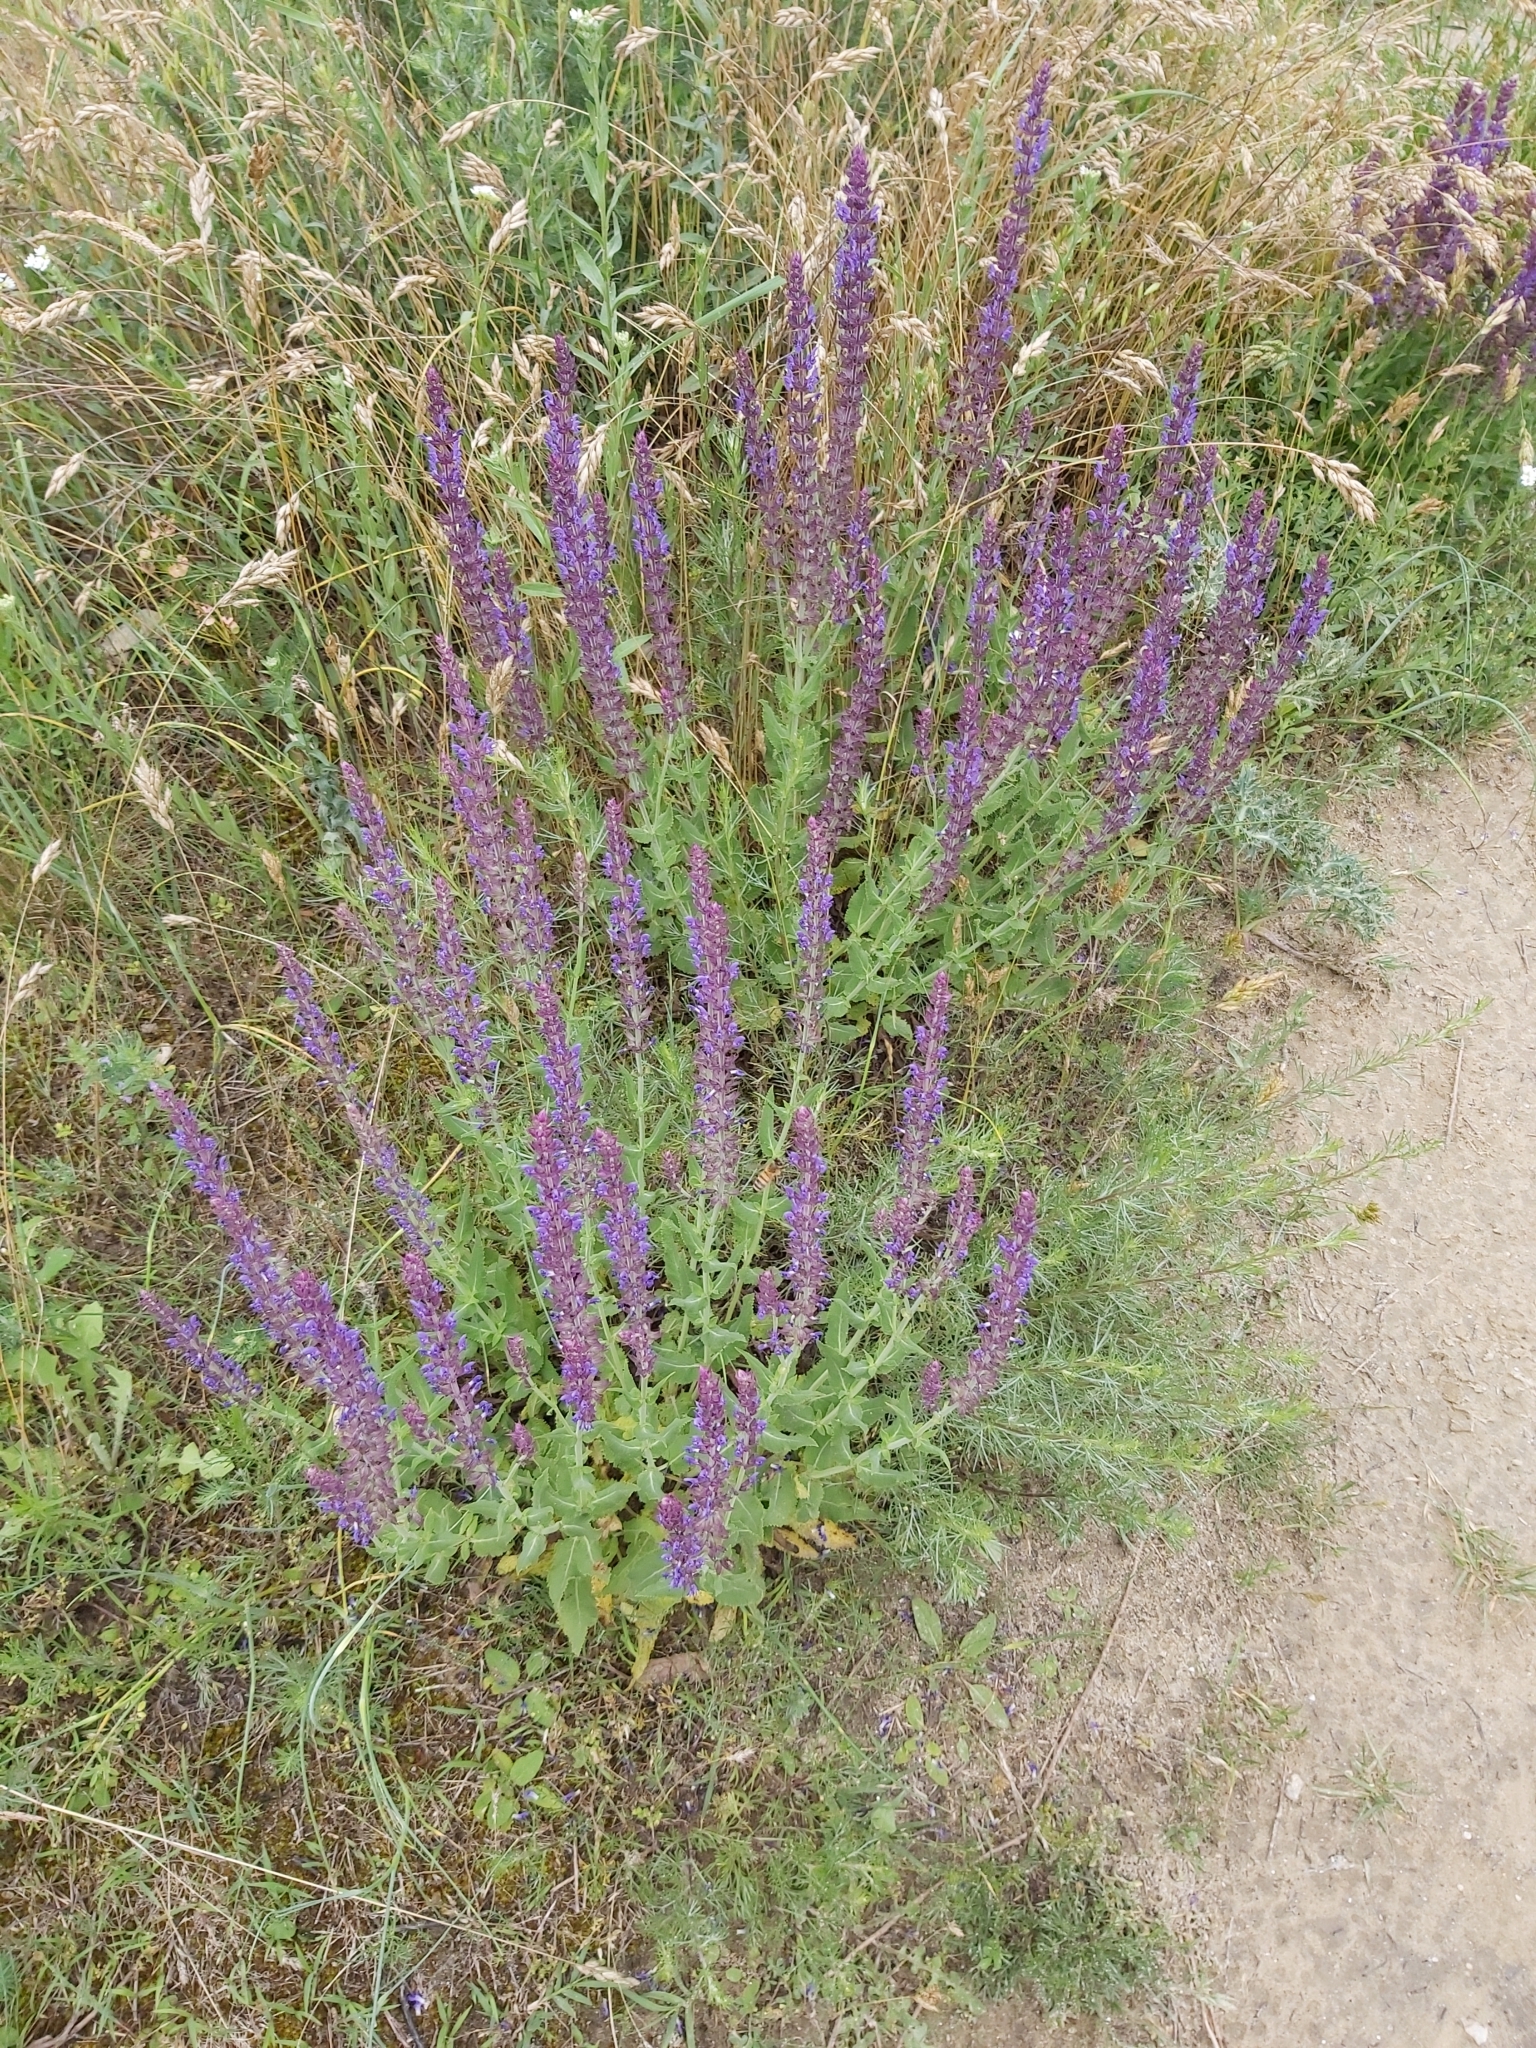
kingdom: Plantae
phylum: Tracheophyta
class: Magnoliopsida
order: Lamiales
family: Lamiaceae
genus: Salvia
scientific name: Salvia nemorosa
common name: Balkan clary
